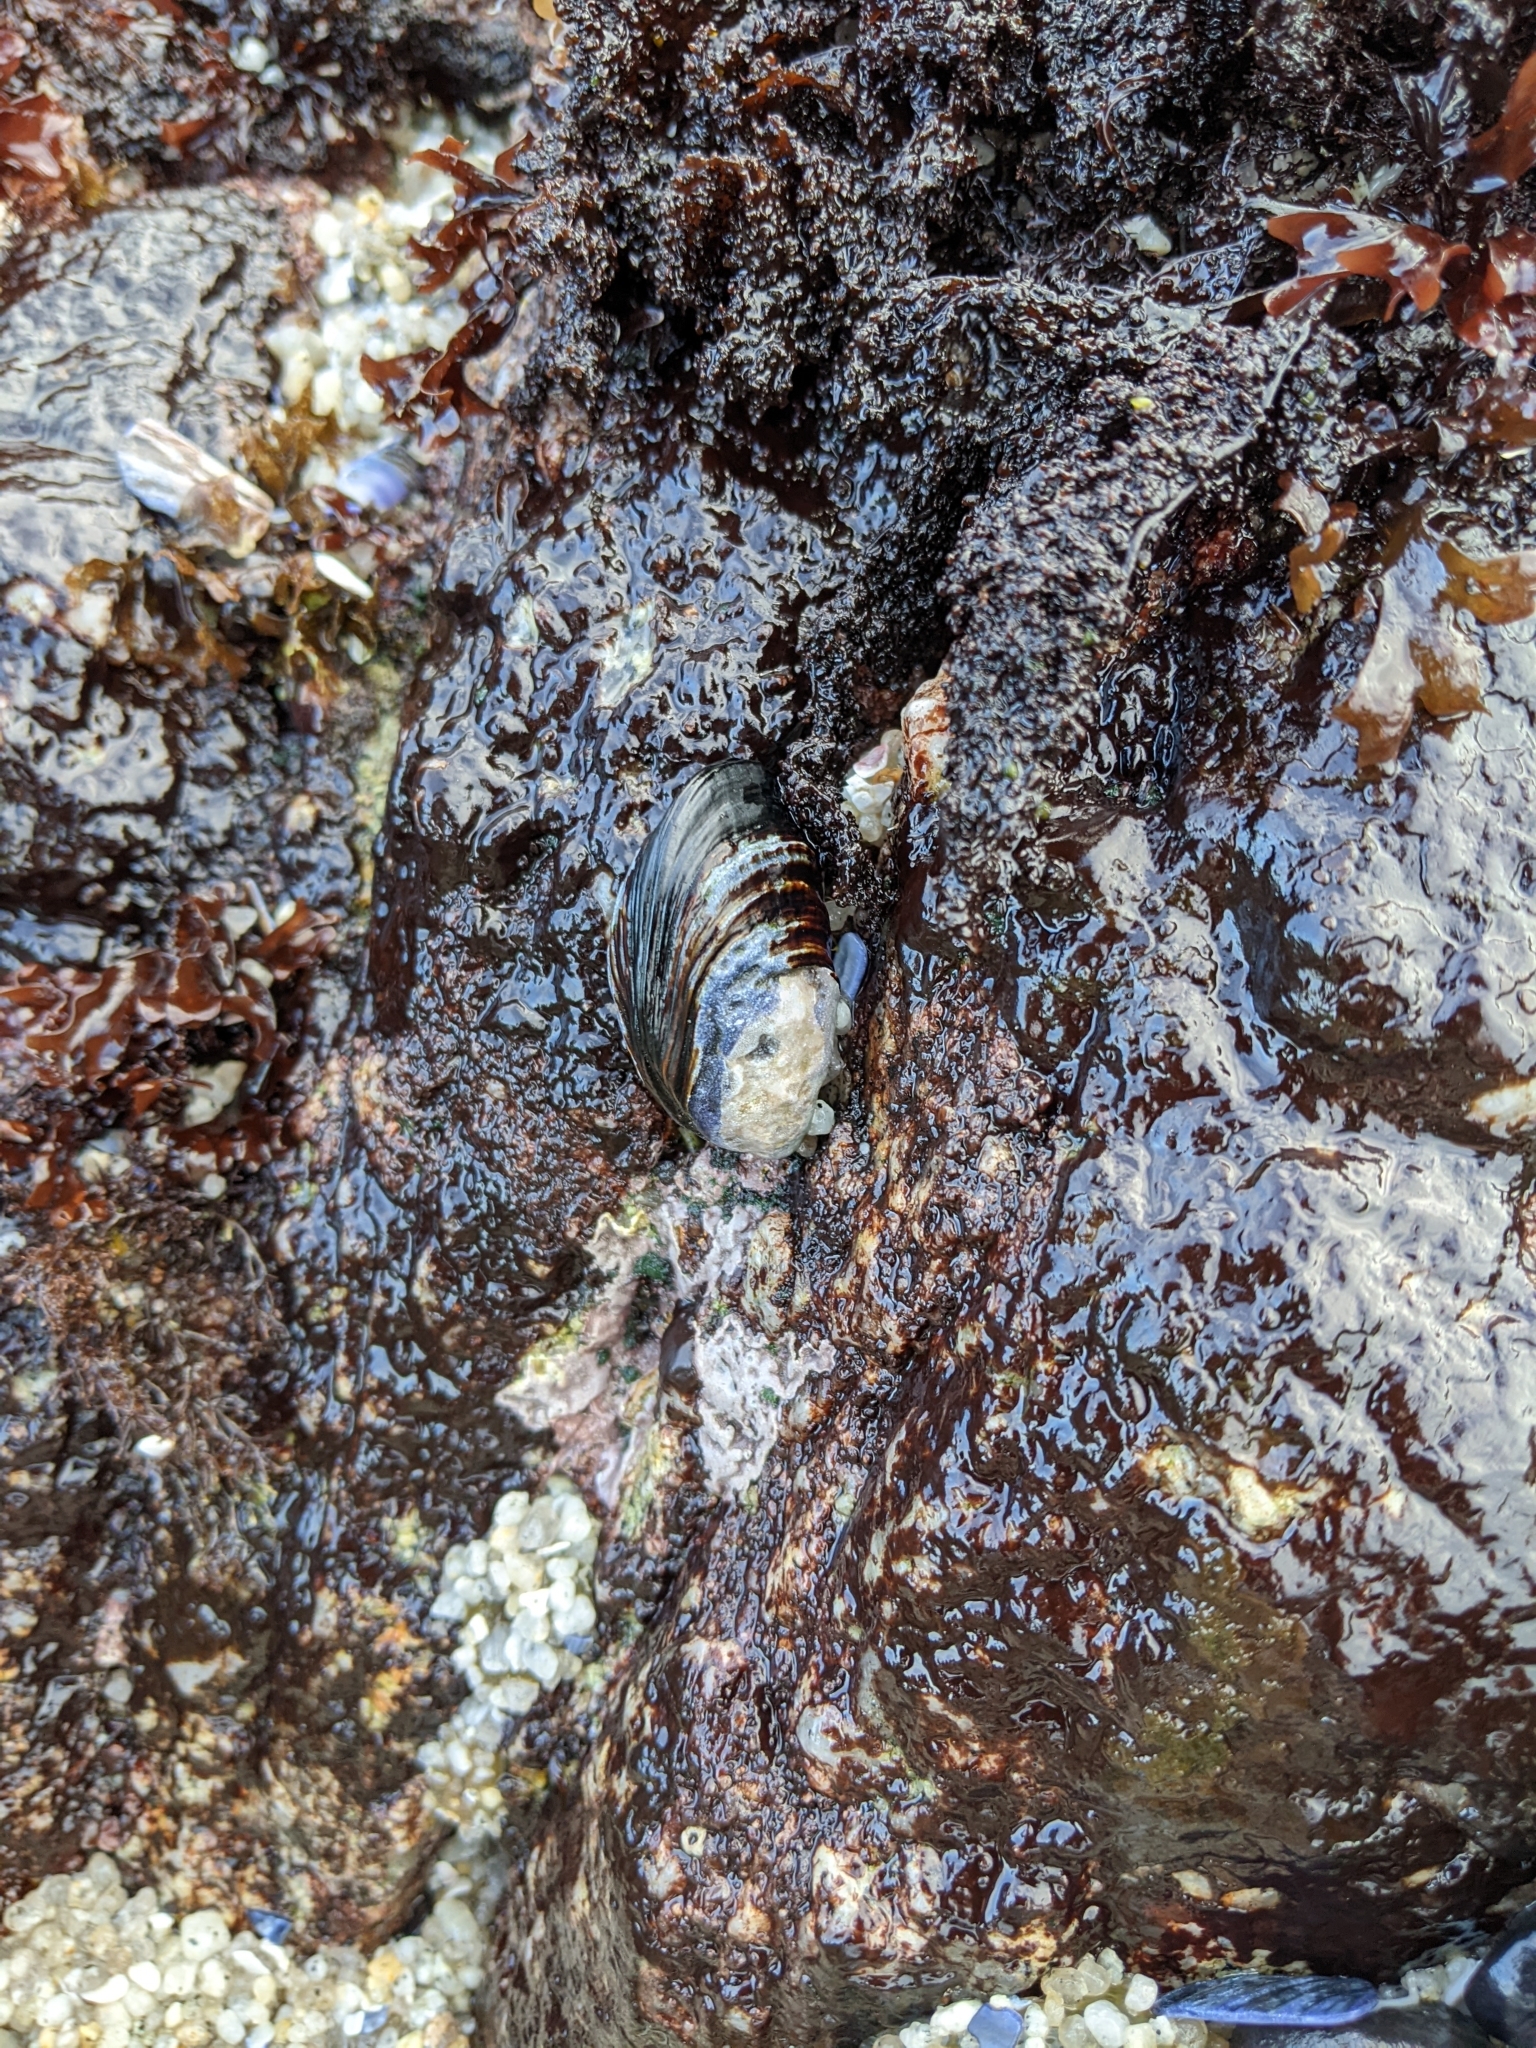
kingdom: Animalia
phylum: Mollusca
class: Bivalvia
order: Mytilida
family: Mytilidae
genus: Mytilus
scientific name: Mytilus californianus
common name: California mussel
